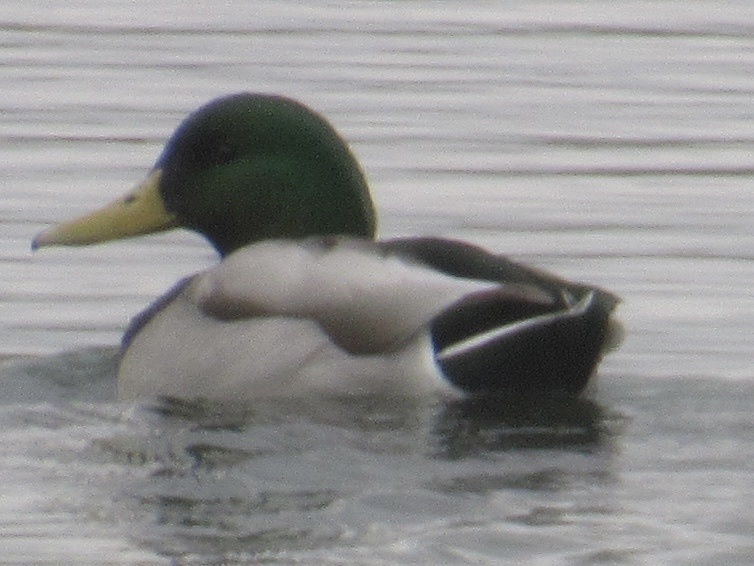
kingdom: Animalia
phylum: Chordata
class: Aves
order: Anseriformes
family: Anatidae
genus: Anas
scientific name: Anas platyrhynchos
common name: Mallard
